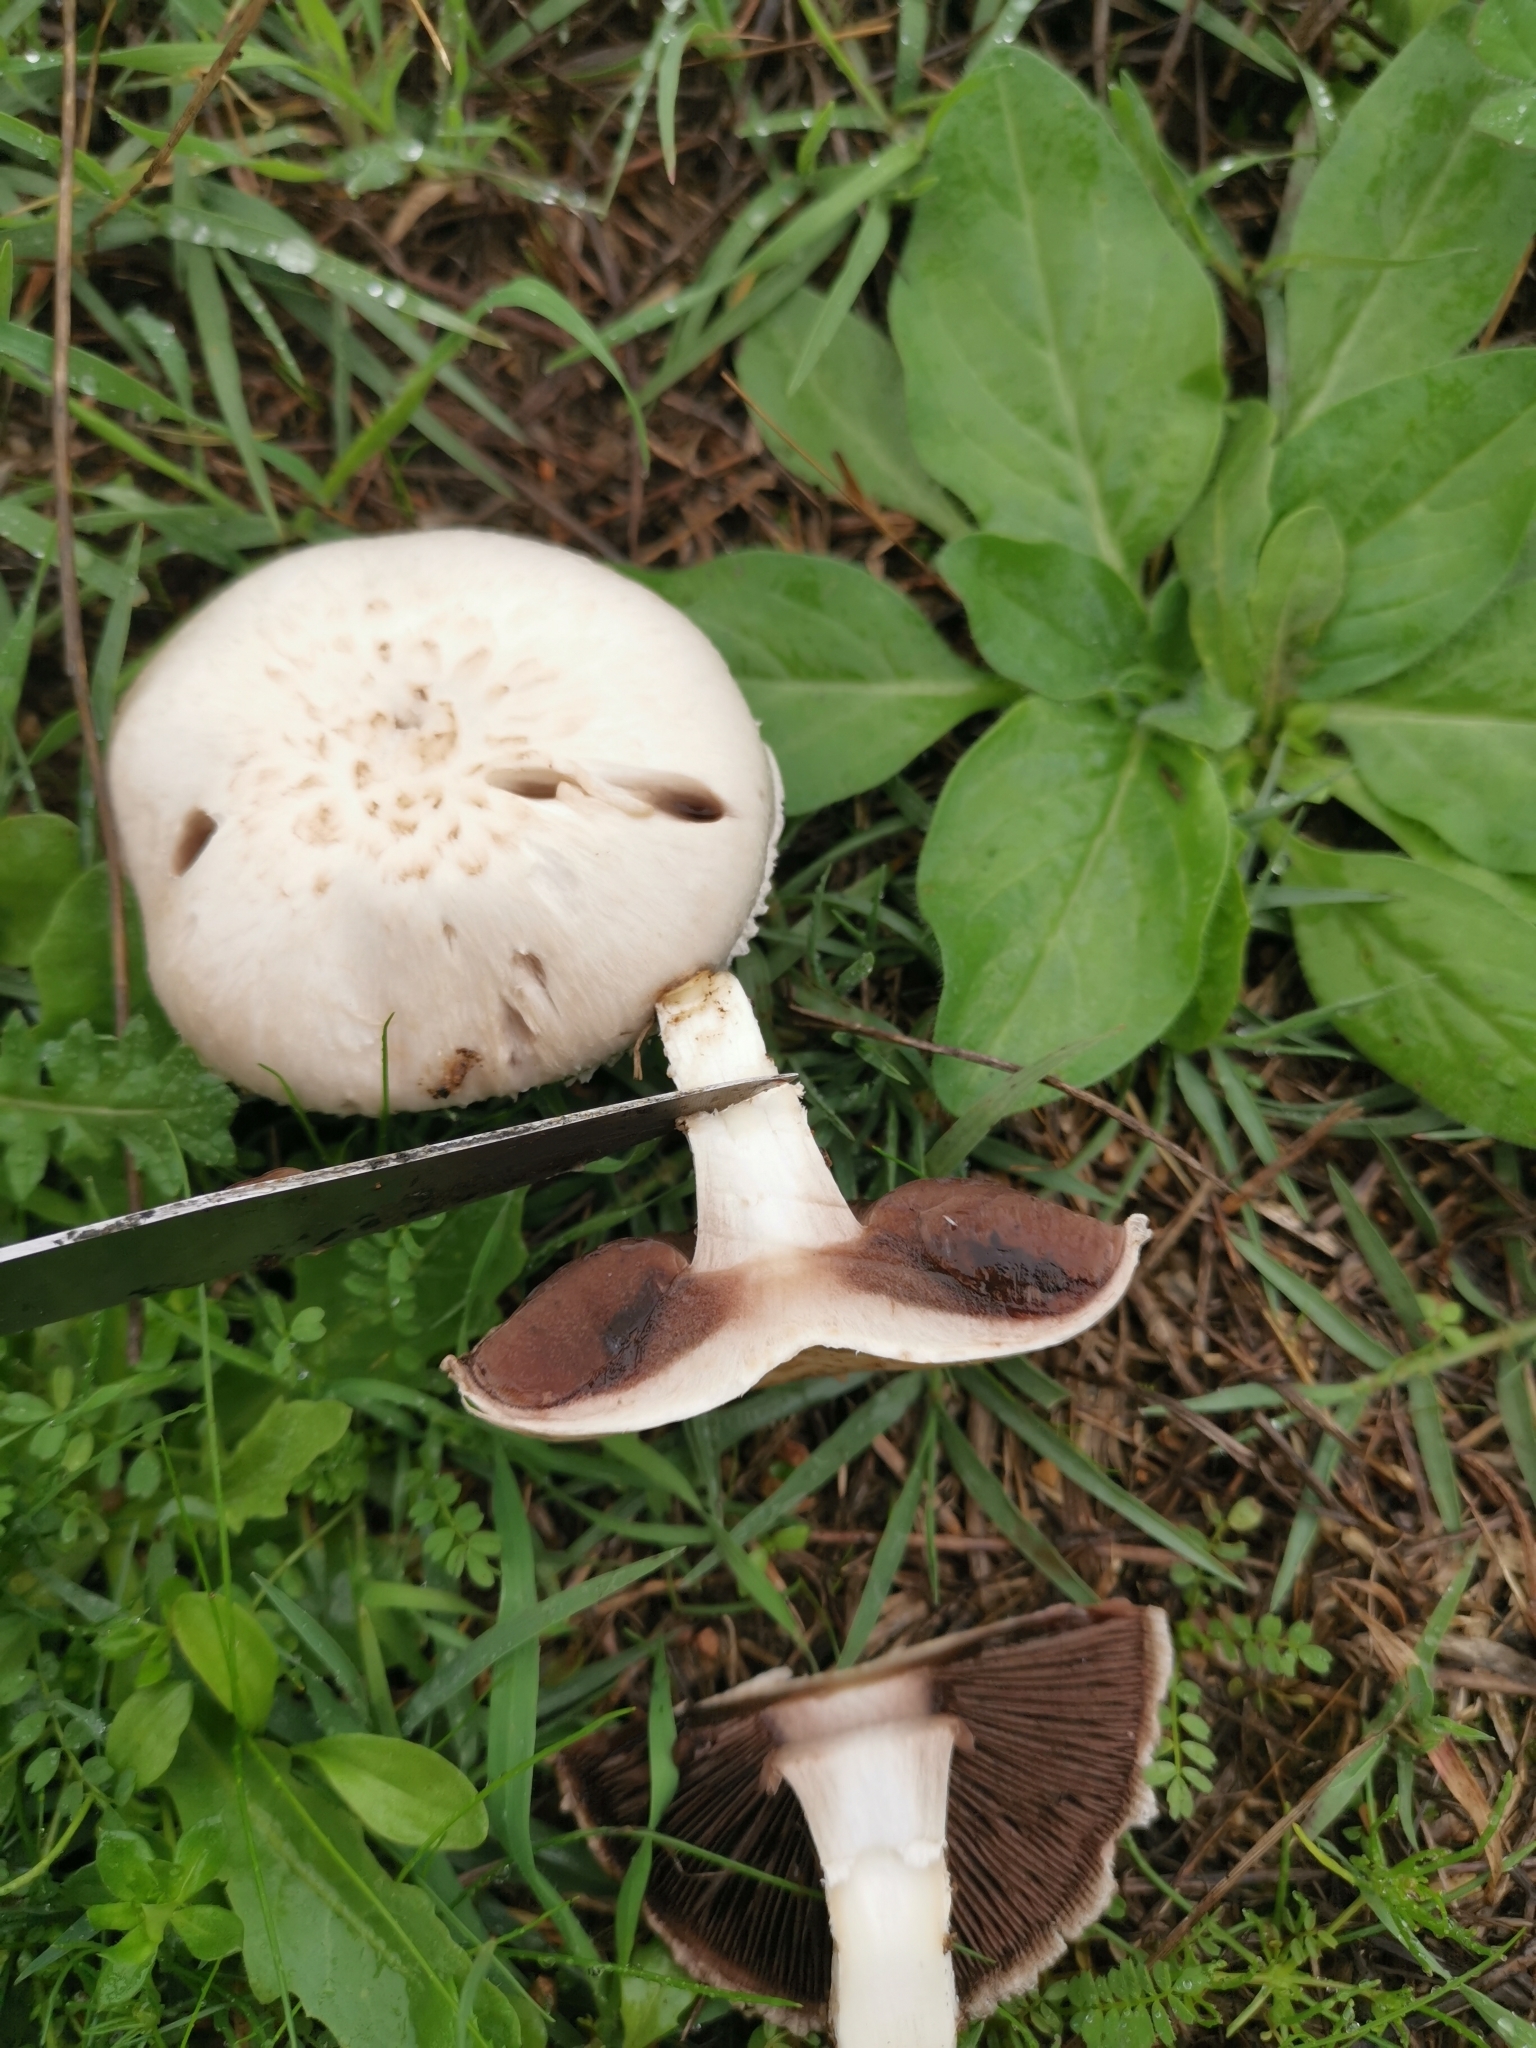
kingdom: Fungi
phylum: Basidiomycota
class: Agaricomycetes
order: Agaricales
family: Agaricaceae
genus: Agaricus
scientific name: Agaricus campestris
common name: Field mushroom
